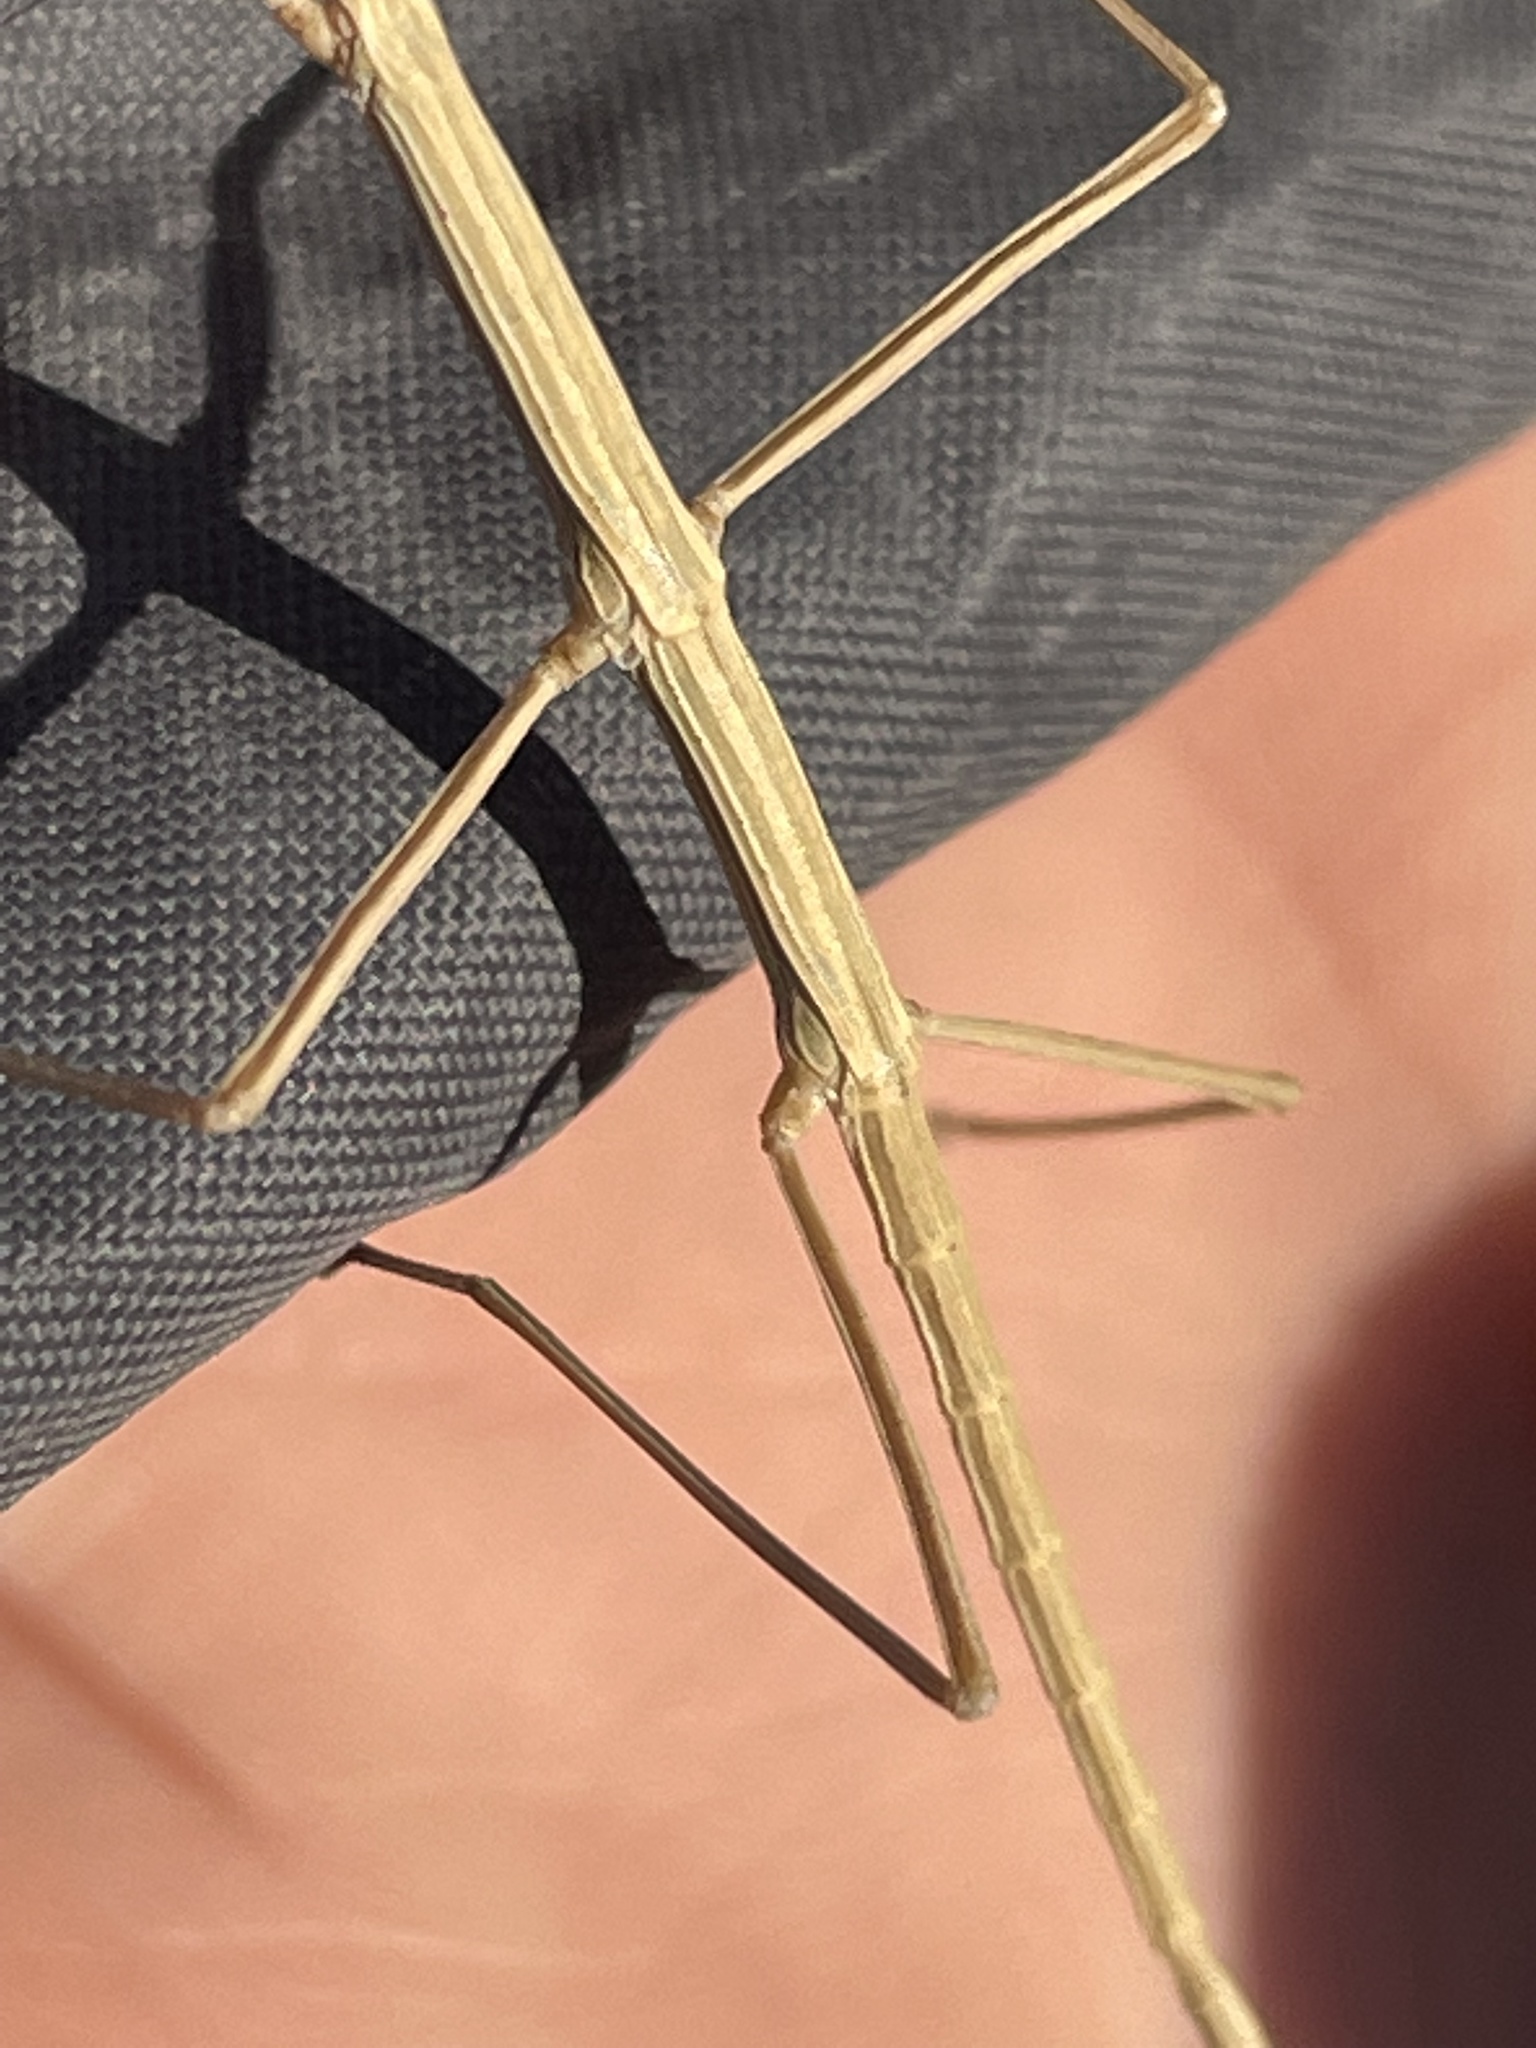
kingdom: Animalia
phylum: Arthropoda
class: Insecta
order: Phasmida
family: Heteronemiidae
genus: Parabacillus
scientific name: Parabacillus hesperus
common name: Western short-horned walkingstick
